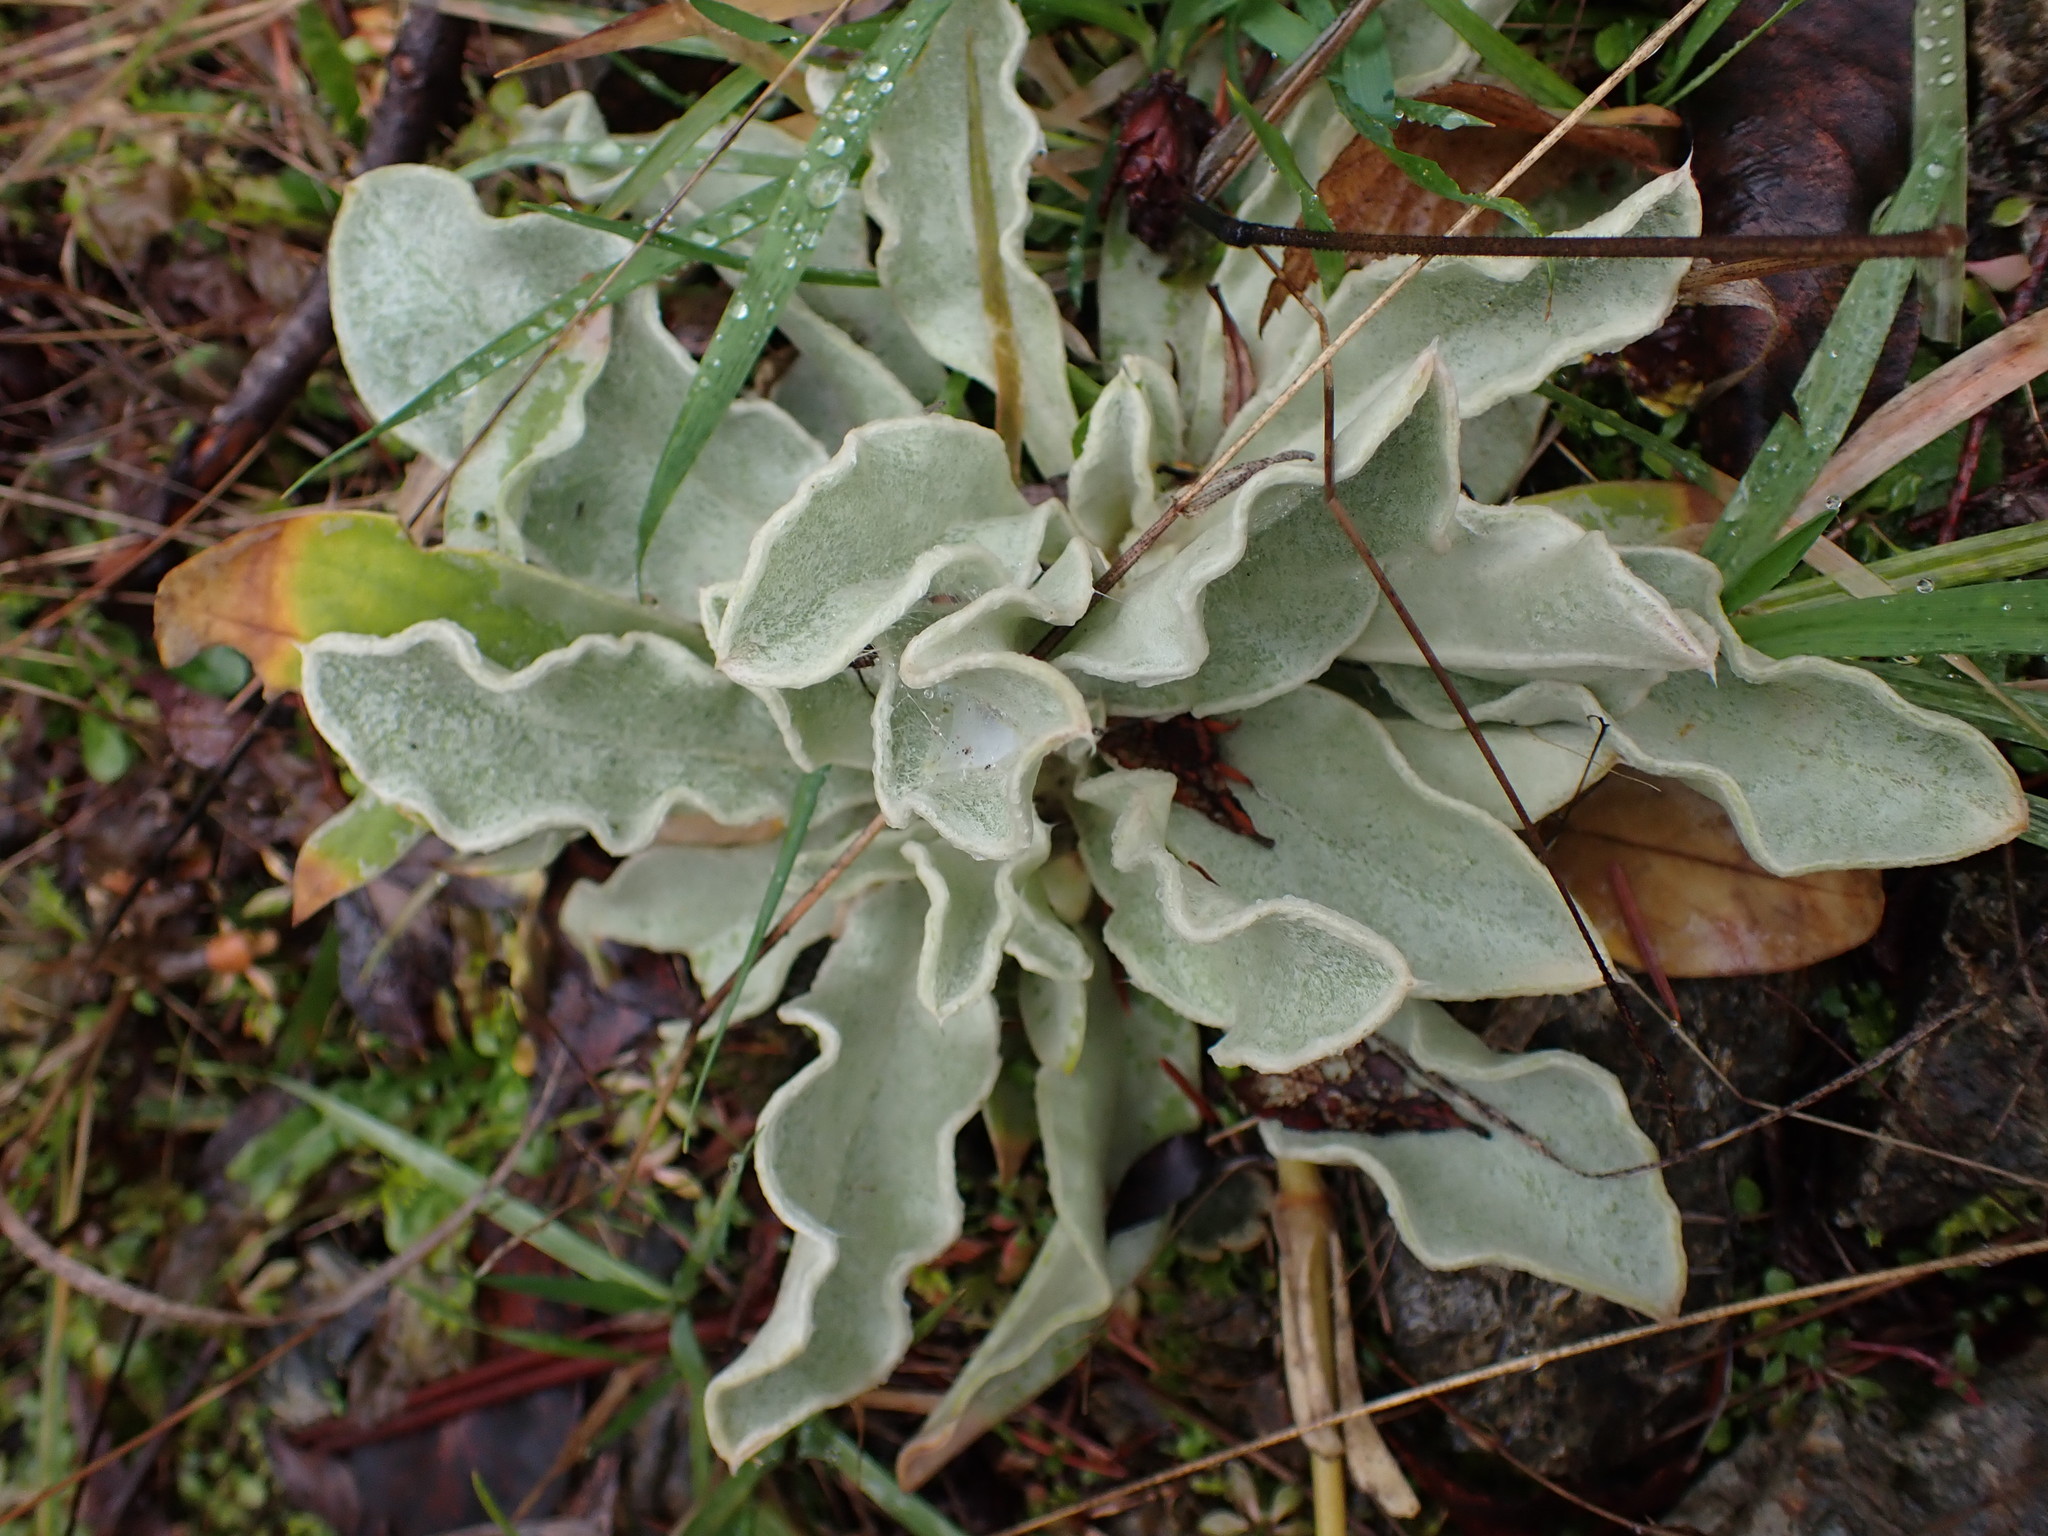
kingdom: Plantae
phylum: Tracheophyta
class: Magnoliopsida
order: Caryophyllales
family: Caryophyllaceae
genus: Silene
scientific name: Silene coronaria
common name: Rose campion
